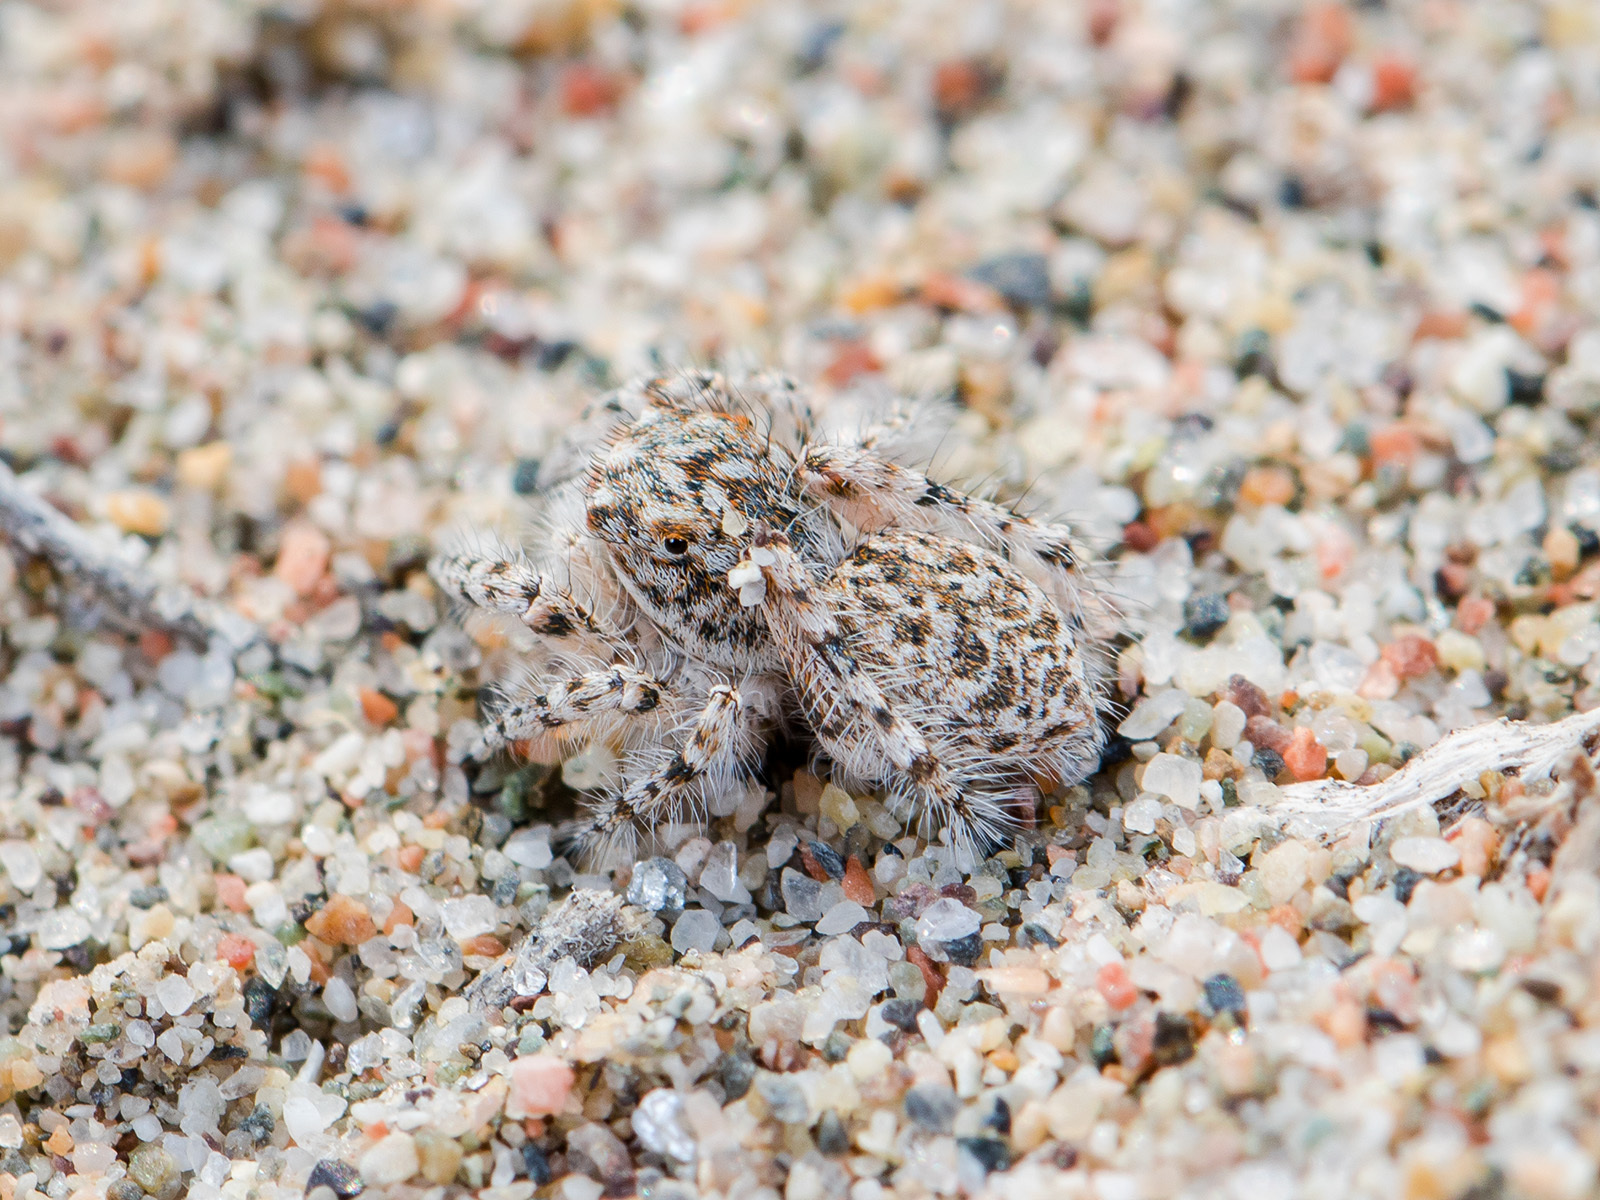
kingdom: Animalia
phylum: Arthropoda
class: Arachnida
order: Araneae
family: Salticidae
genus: Yllenus
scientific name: Yllenus uiguricus
